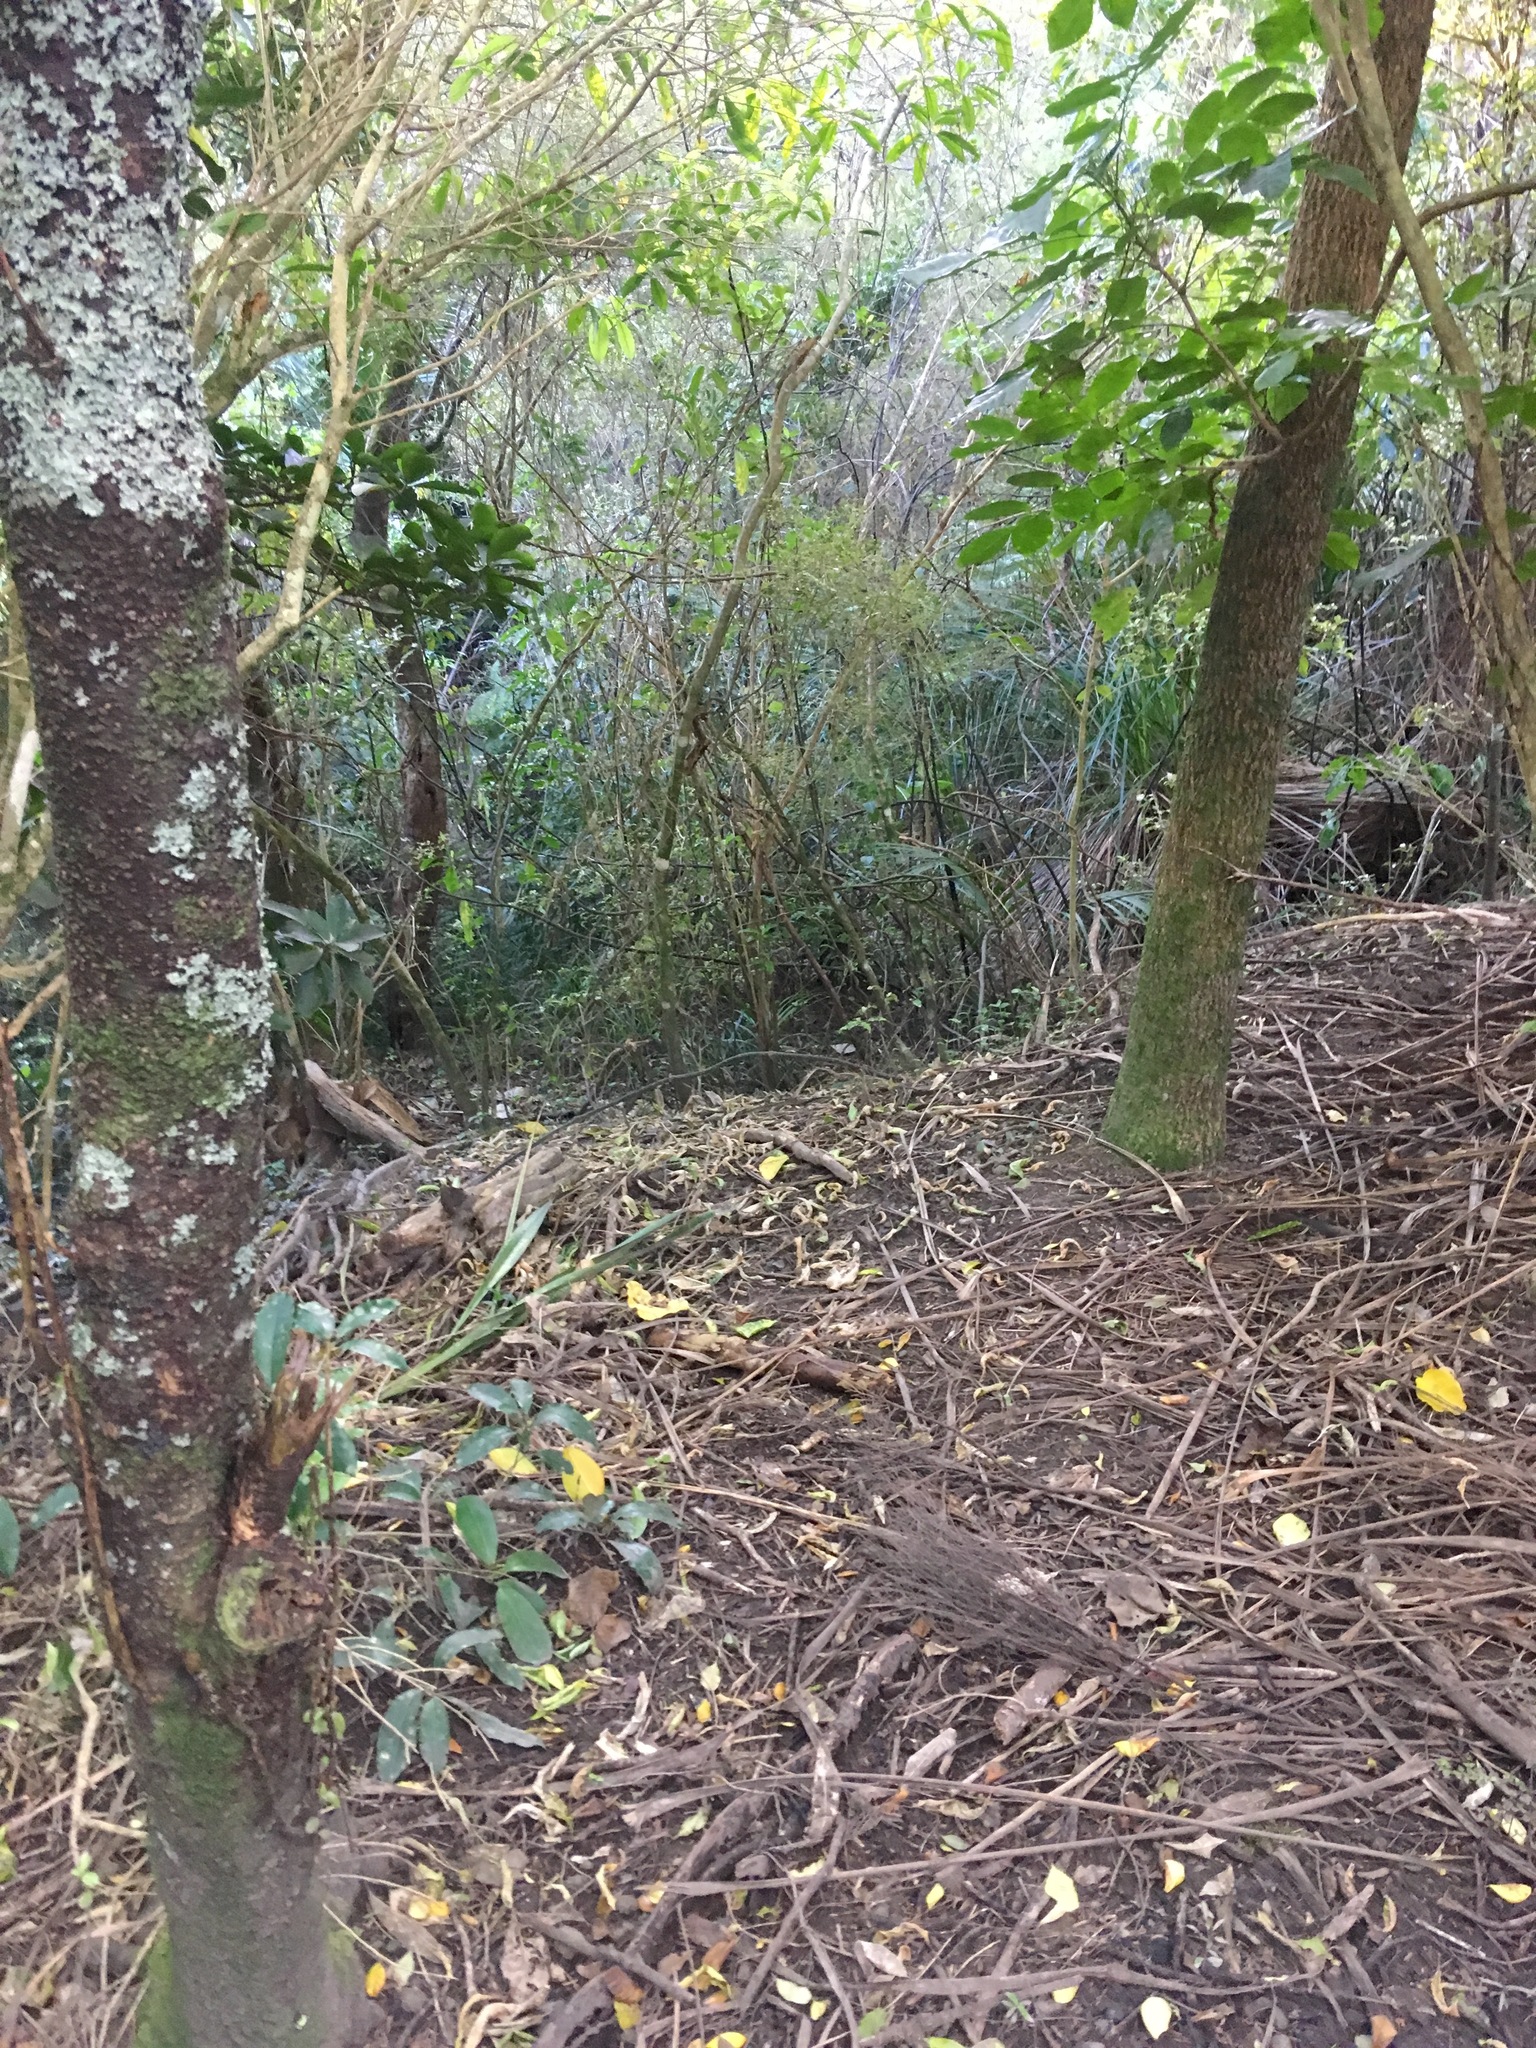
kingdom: Plantae
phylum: Tracheophyta
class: Magnoliopsida
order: Sapindales
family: Meliaceae
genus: Didymocheton
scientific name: Didymocheton spectabilis
